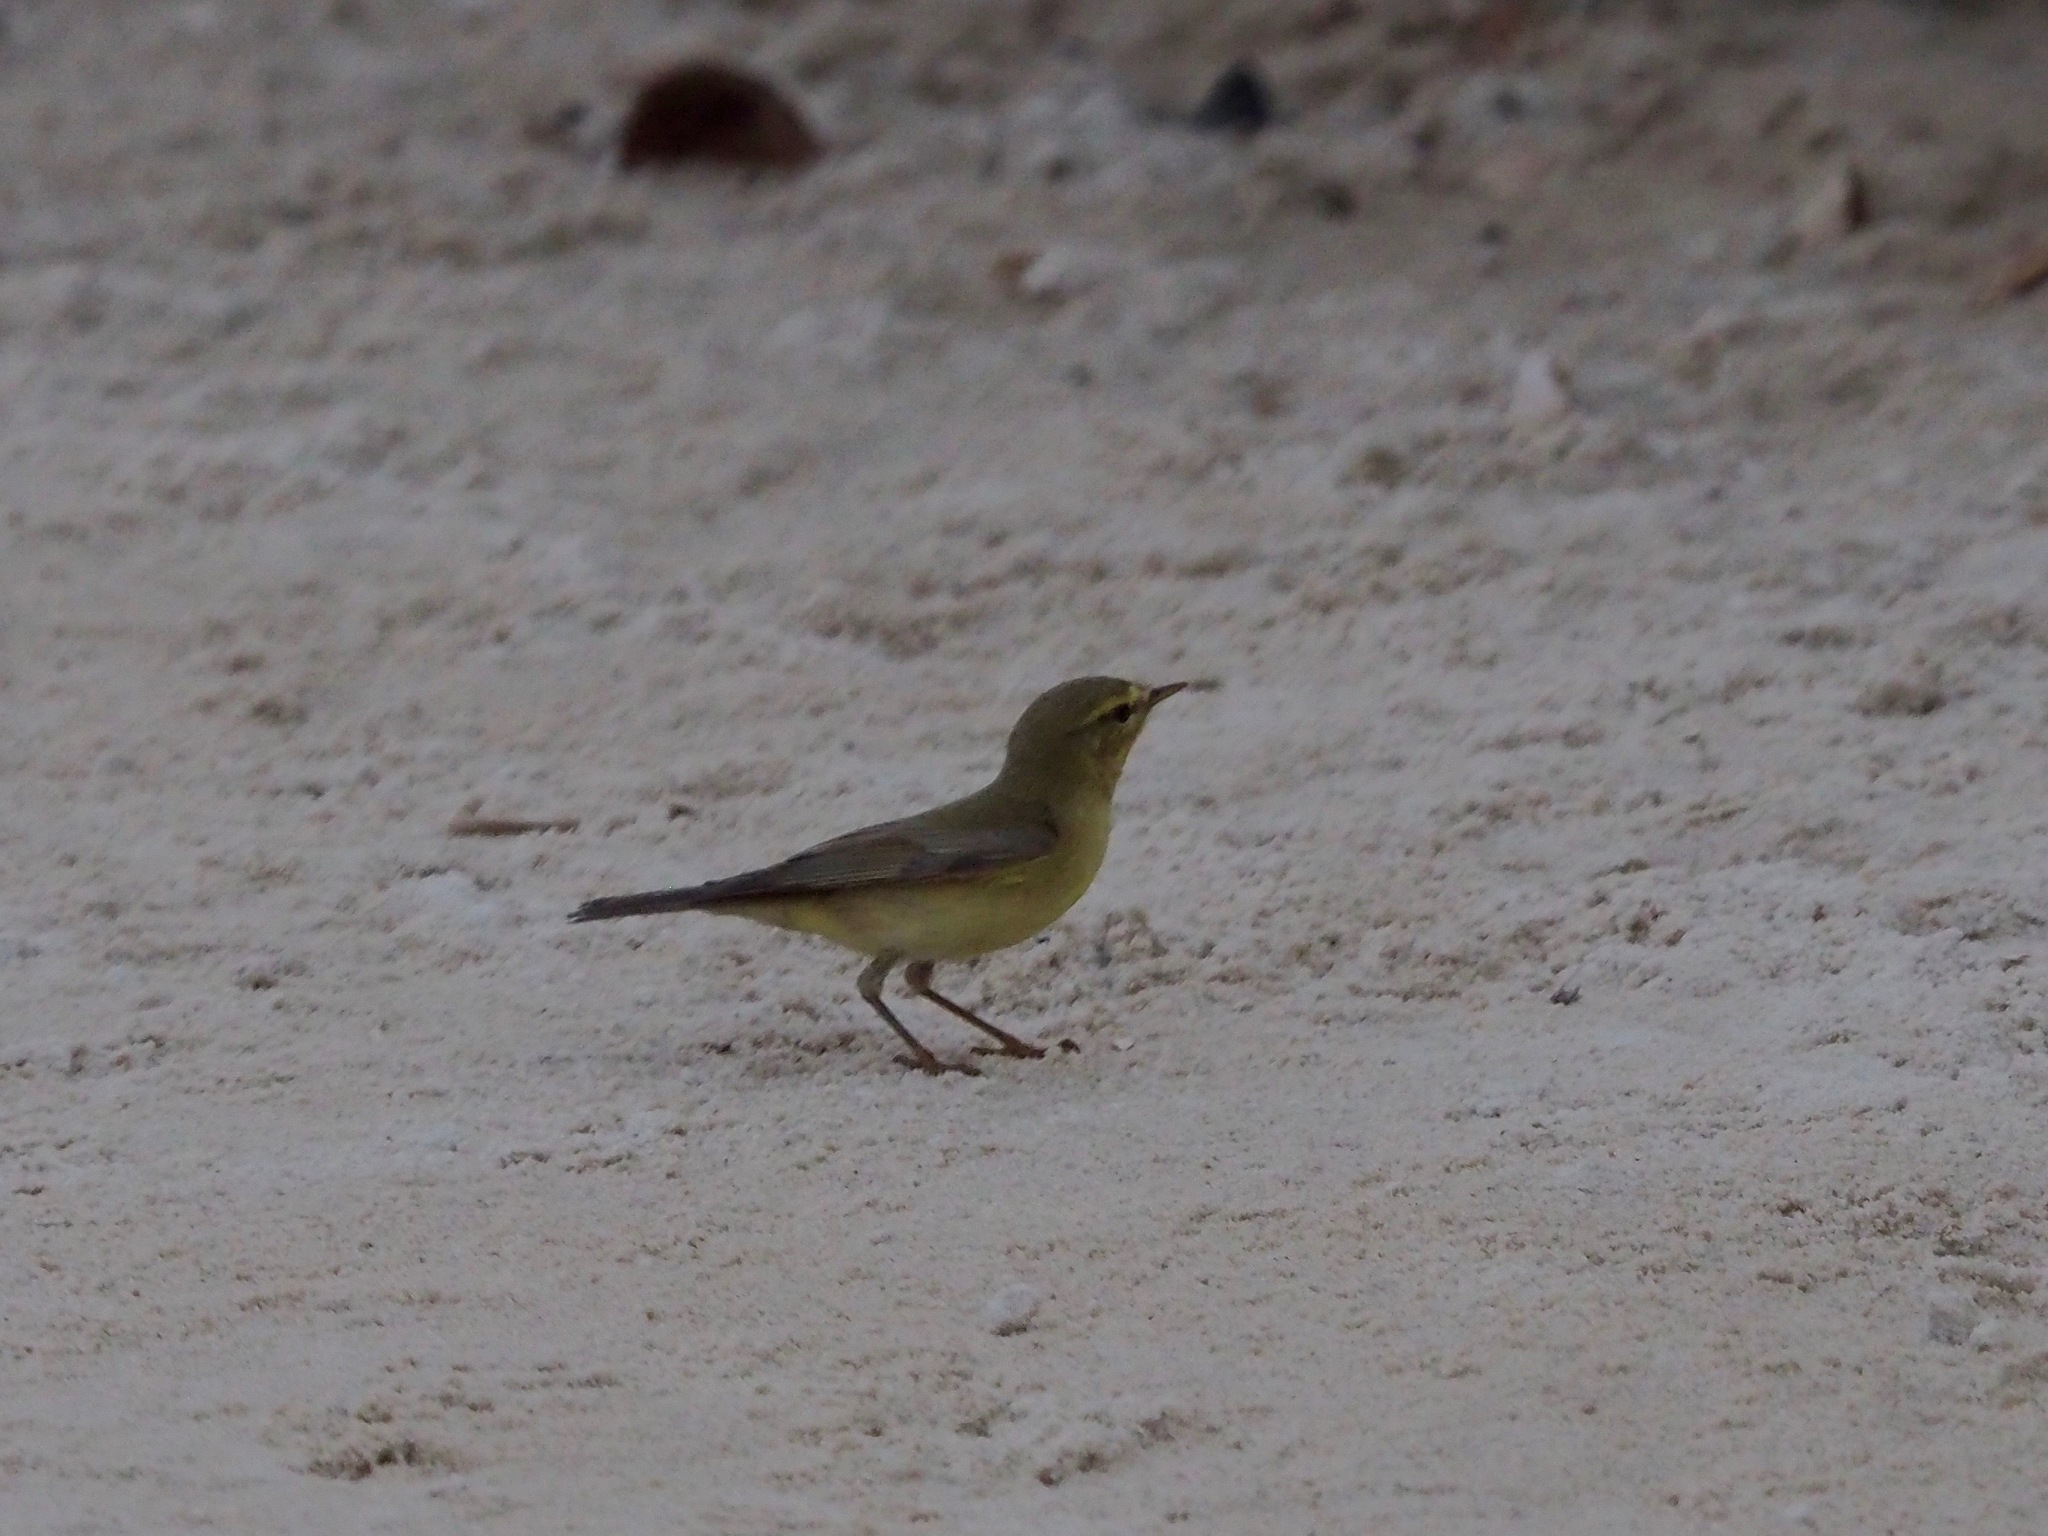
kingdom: Animalia
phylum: Chordata
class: Aves
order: Passeriformes
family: Phylloscopidae
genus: Phylloscopus
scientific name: Phylloscopus trochilus
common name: Willow warbler
